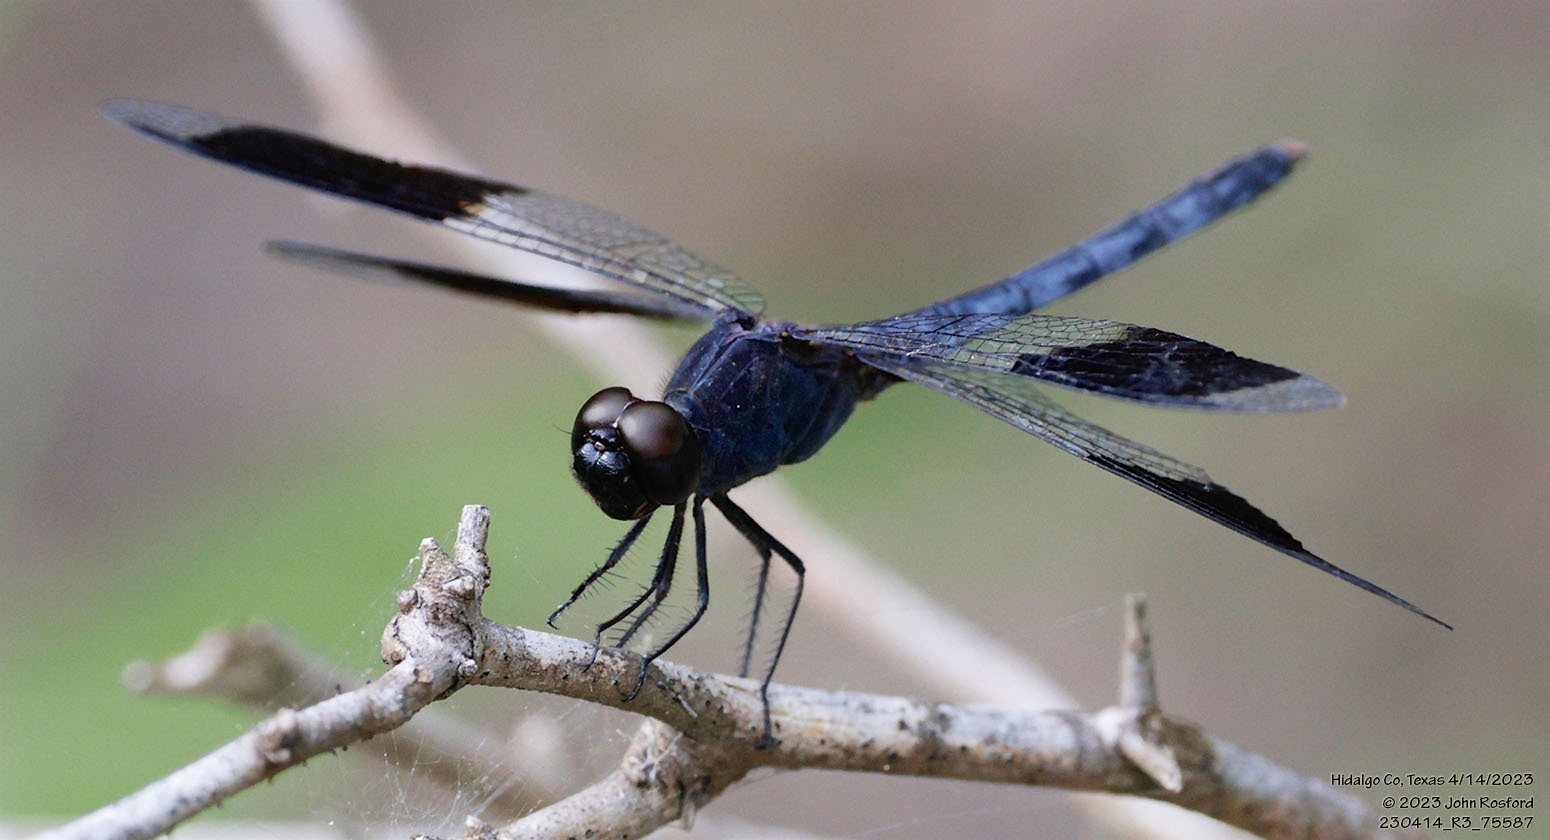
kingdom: Animalia
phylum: Arthropoda
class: Insecta
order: Odonata
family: Libellulidae
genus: Erythrodiplax
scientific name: Erythrodiplax umbrata
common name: Band-winged dragonlet
